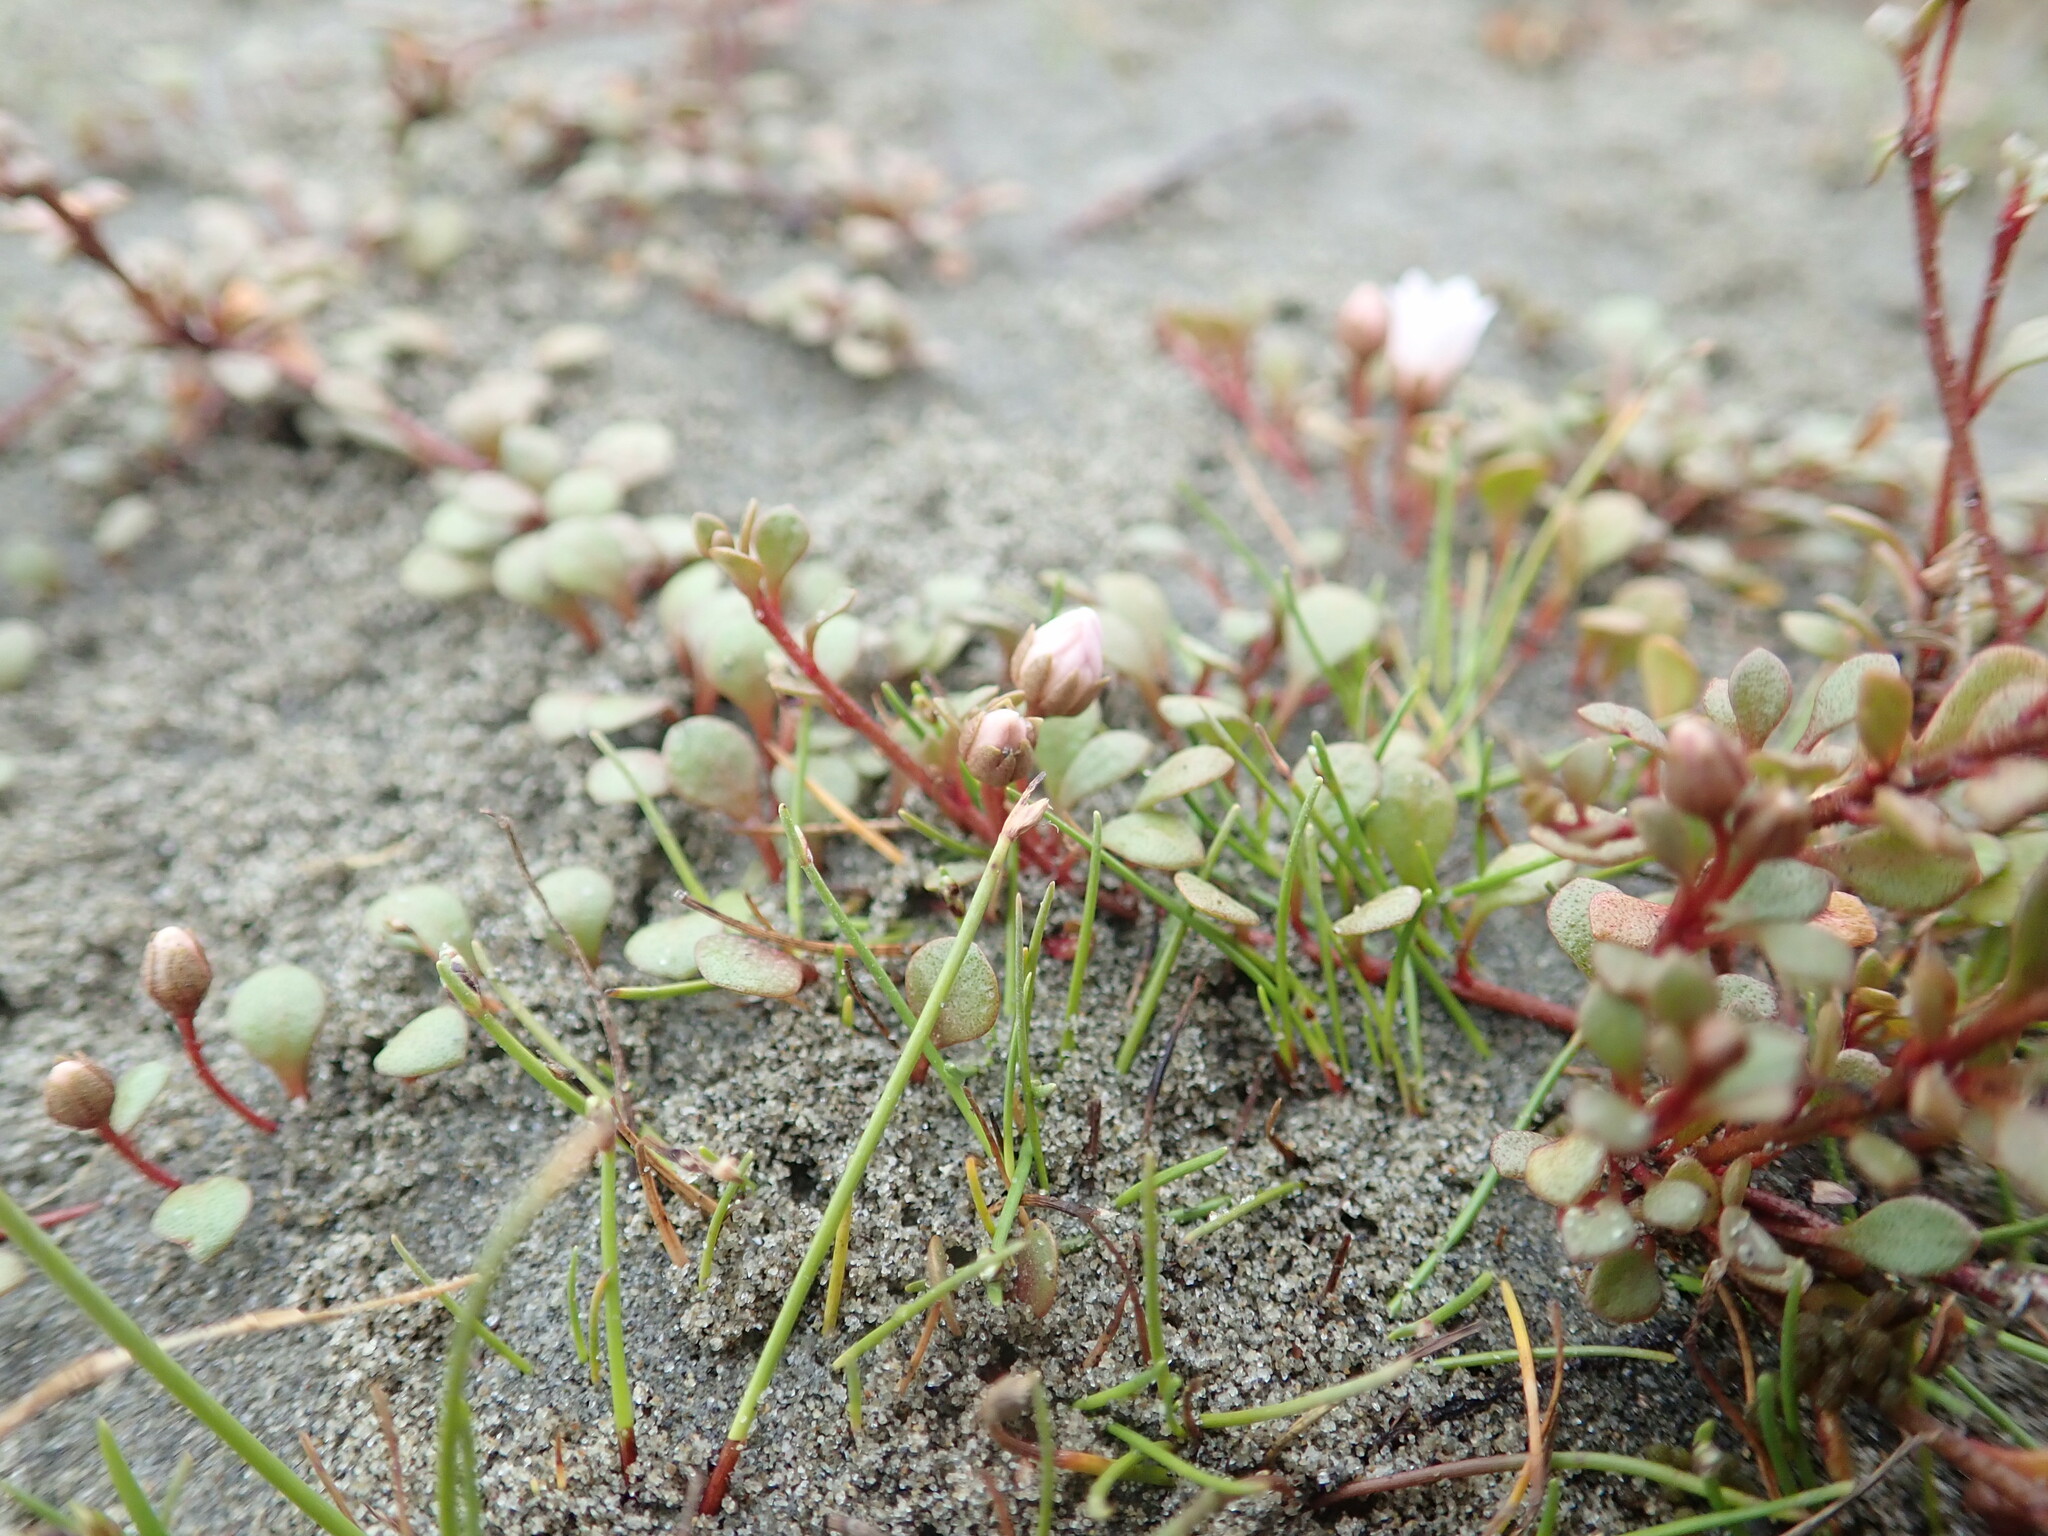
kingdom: Plantae
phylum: Tracheophyta
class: Magnoliopsida
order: Ericales
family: Primulaceae
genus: Samolus
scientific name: Samolus repens
